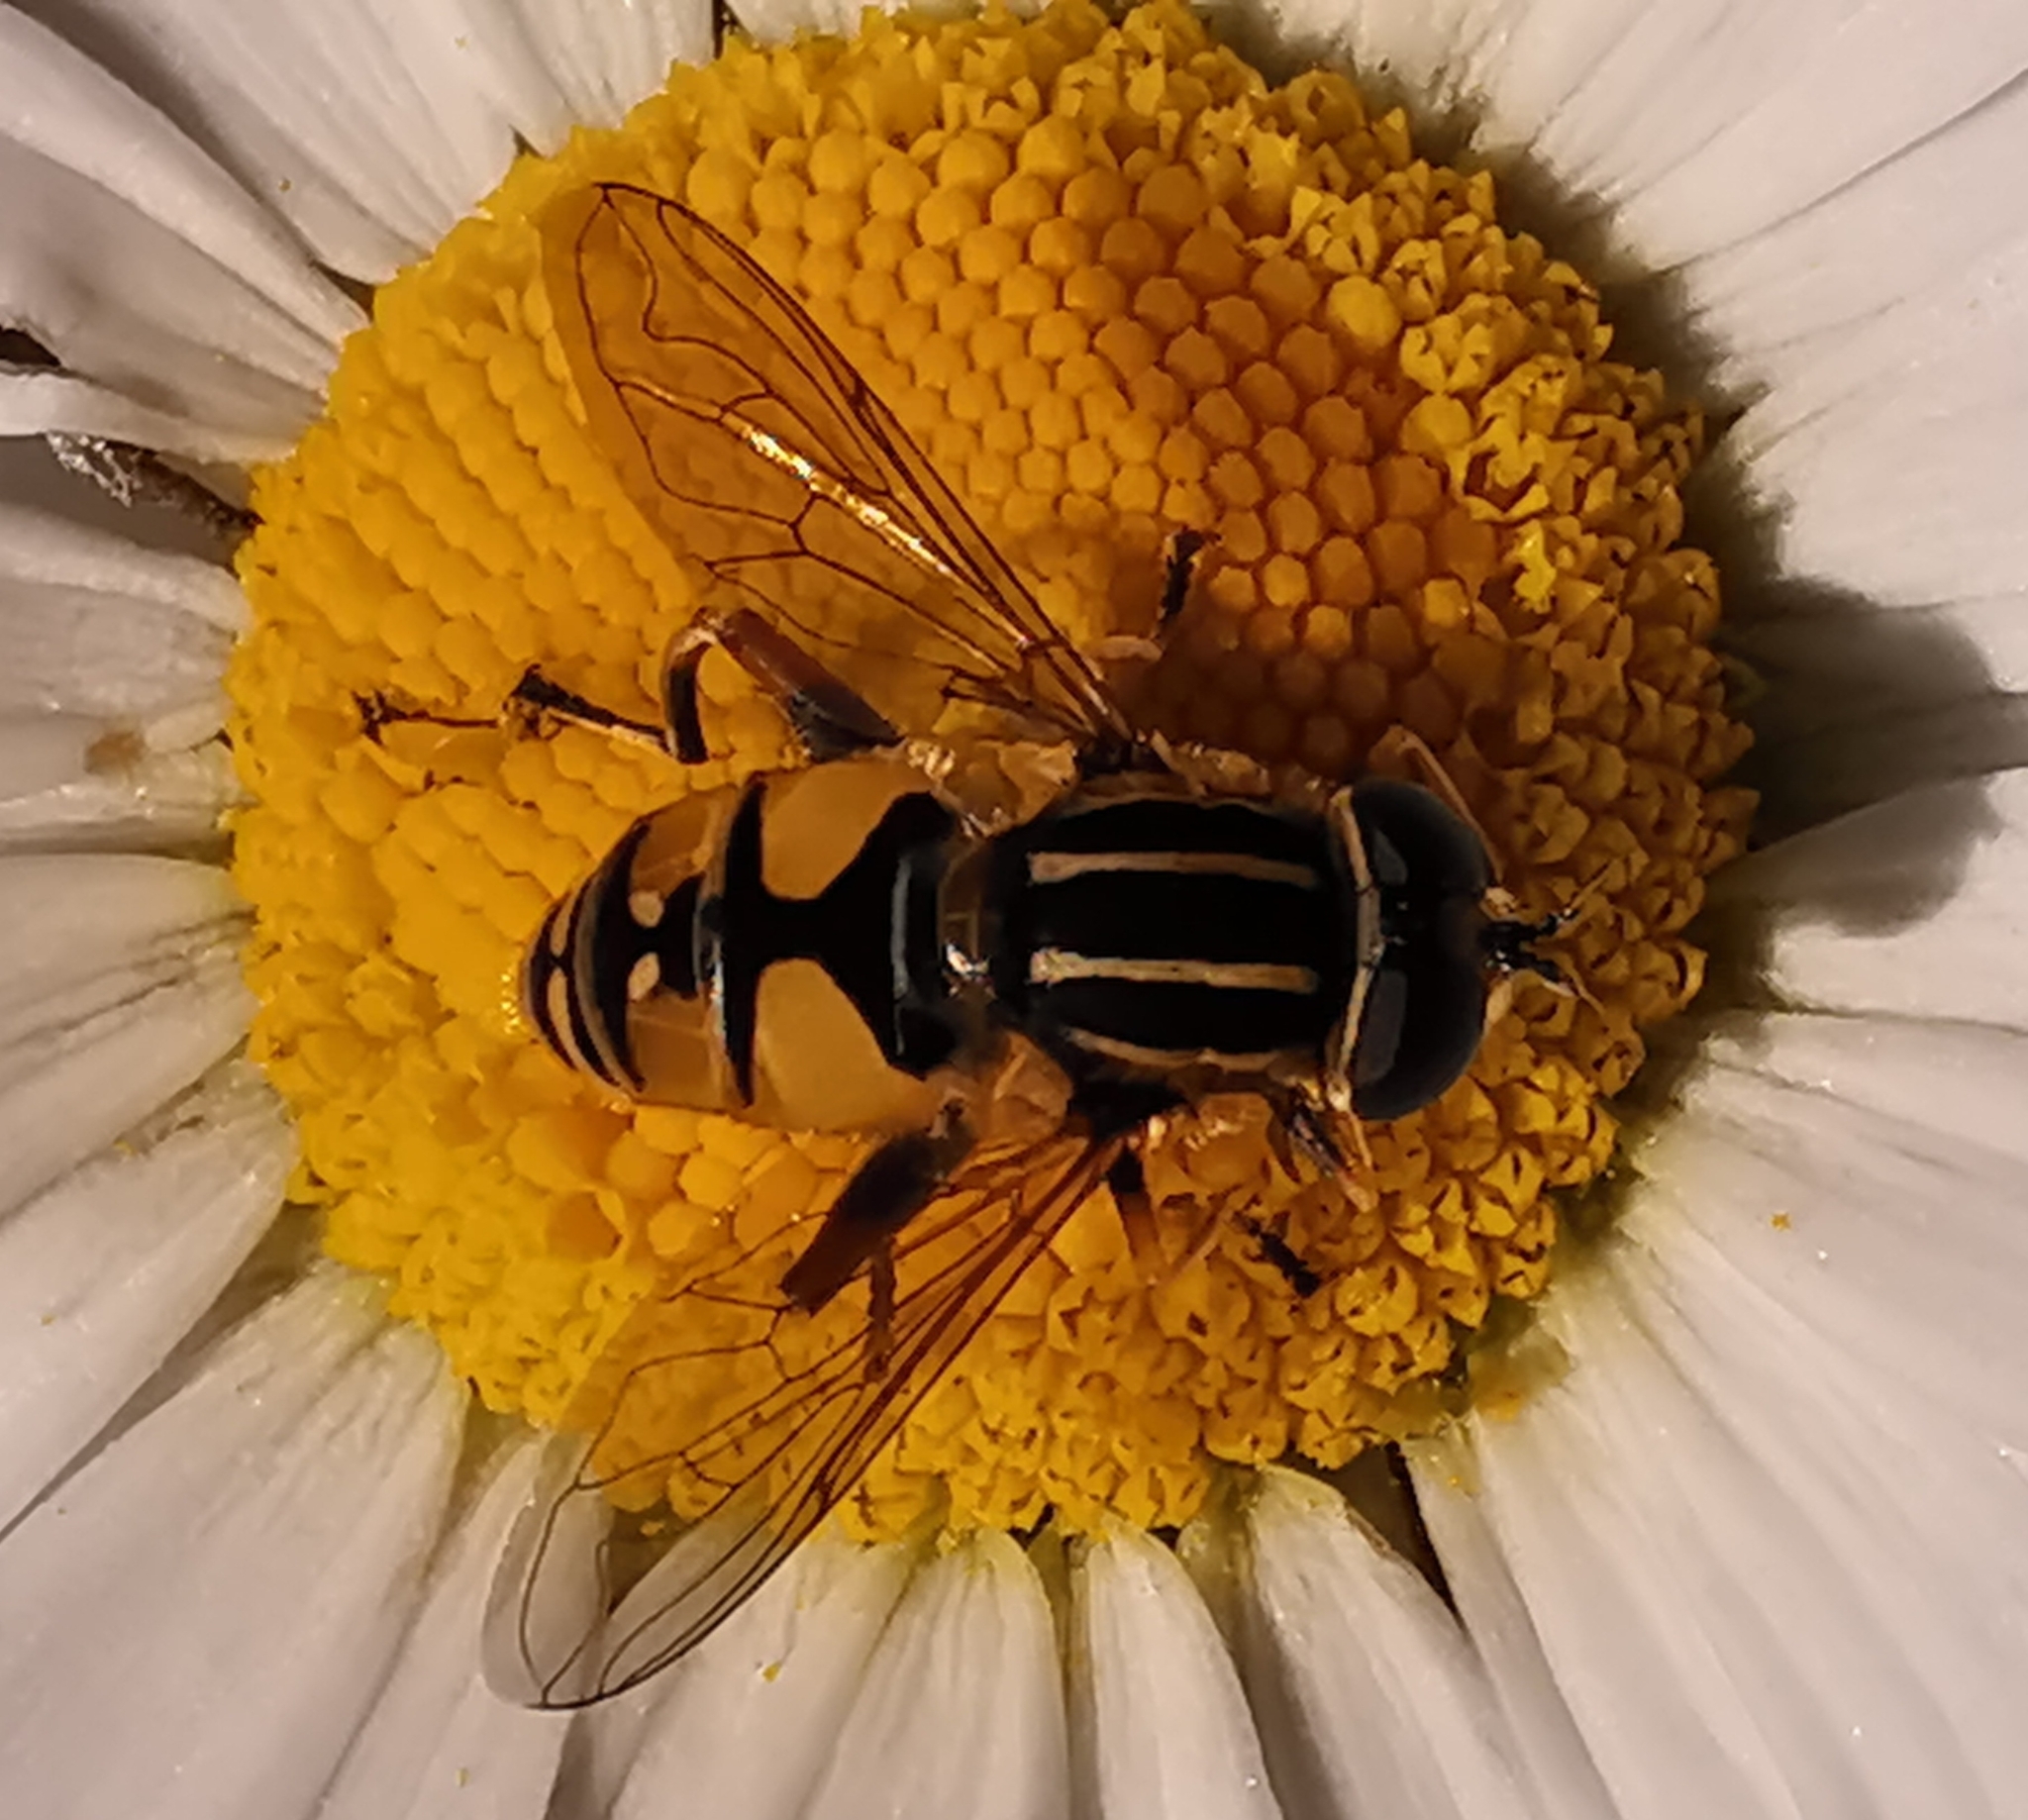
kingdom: Animalia
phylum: Arthropoda
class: Insecta
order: Diptera
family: Syrphidae
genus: Helophilus
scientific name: Helophilus pendulus
